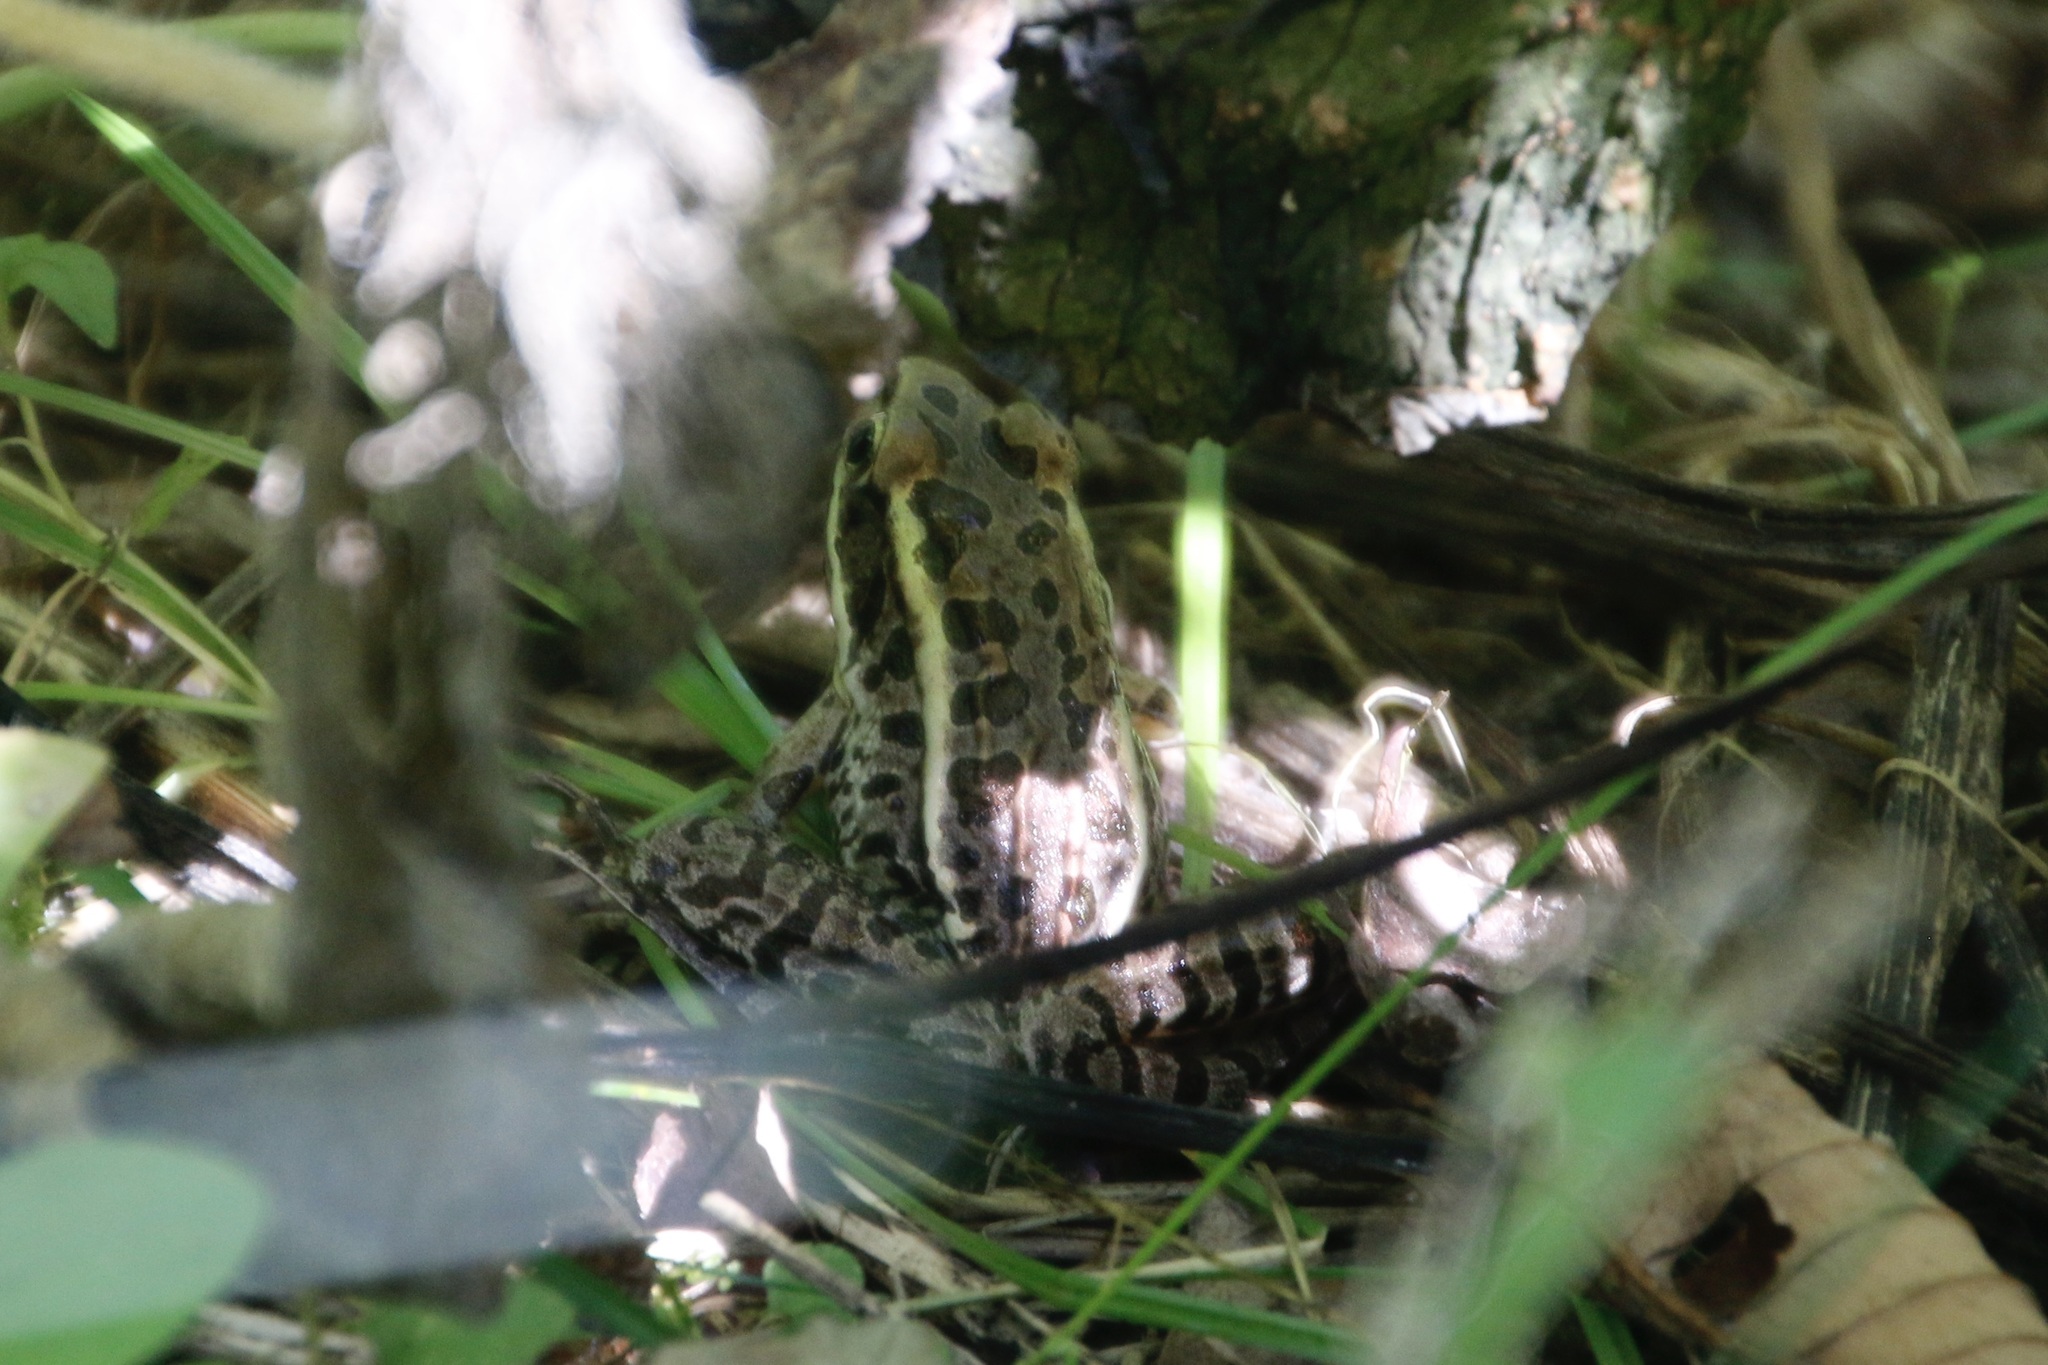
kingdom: Animalia
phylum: Chordata
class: Amphibia
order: Anura
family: Ranidae
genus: Lithobates
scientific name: Lithobates palustris
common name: Pickerel frog
